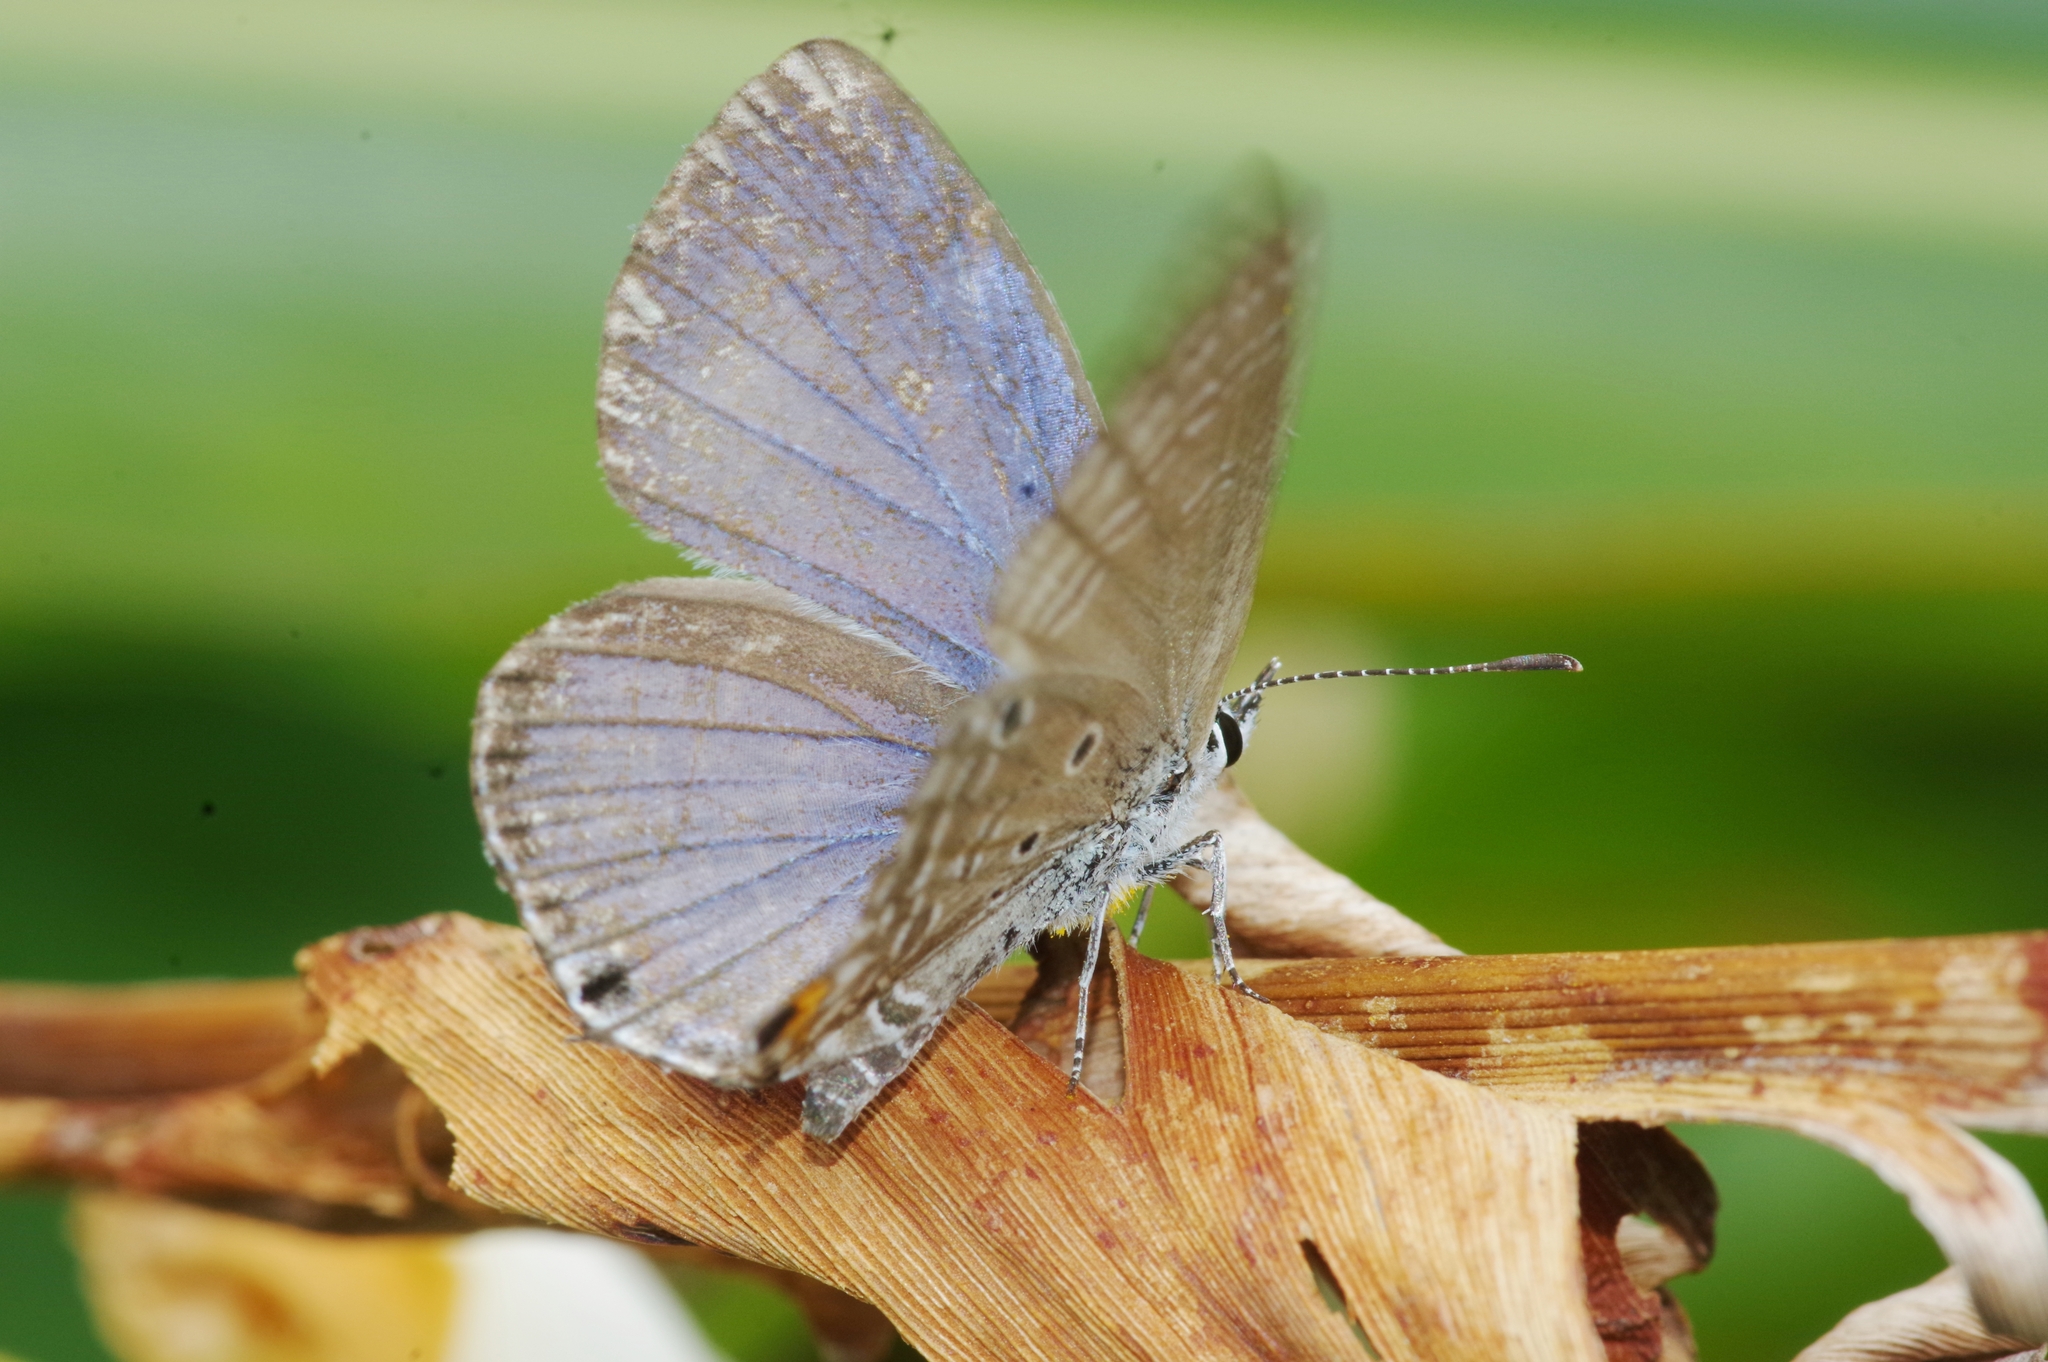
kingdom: Animalia
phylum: Arthropoda
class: Insecta
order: Lepidoptera
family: Lycaenidae
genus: Luthrodes
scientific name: Luthrodes pandava
